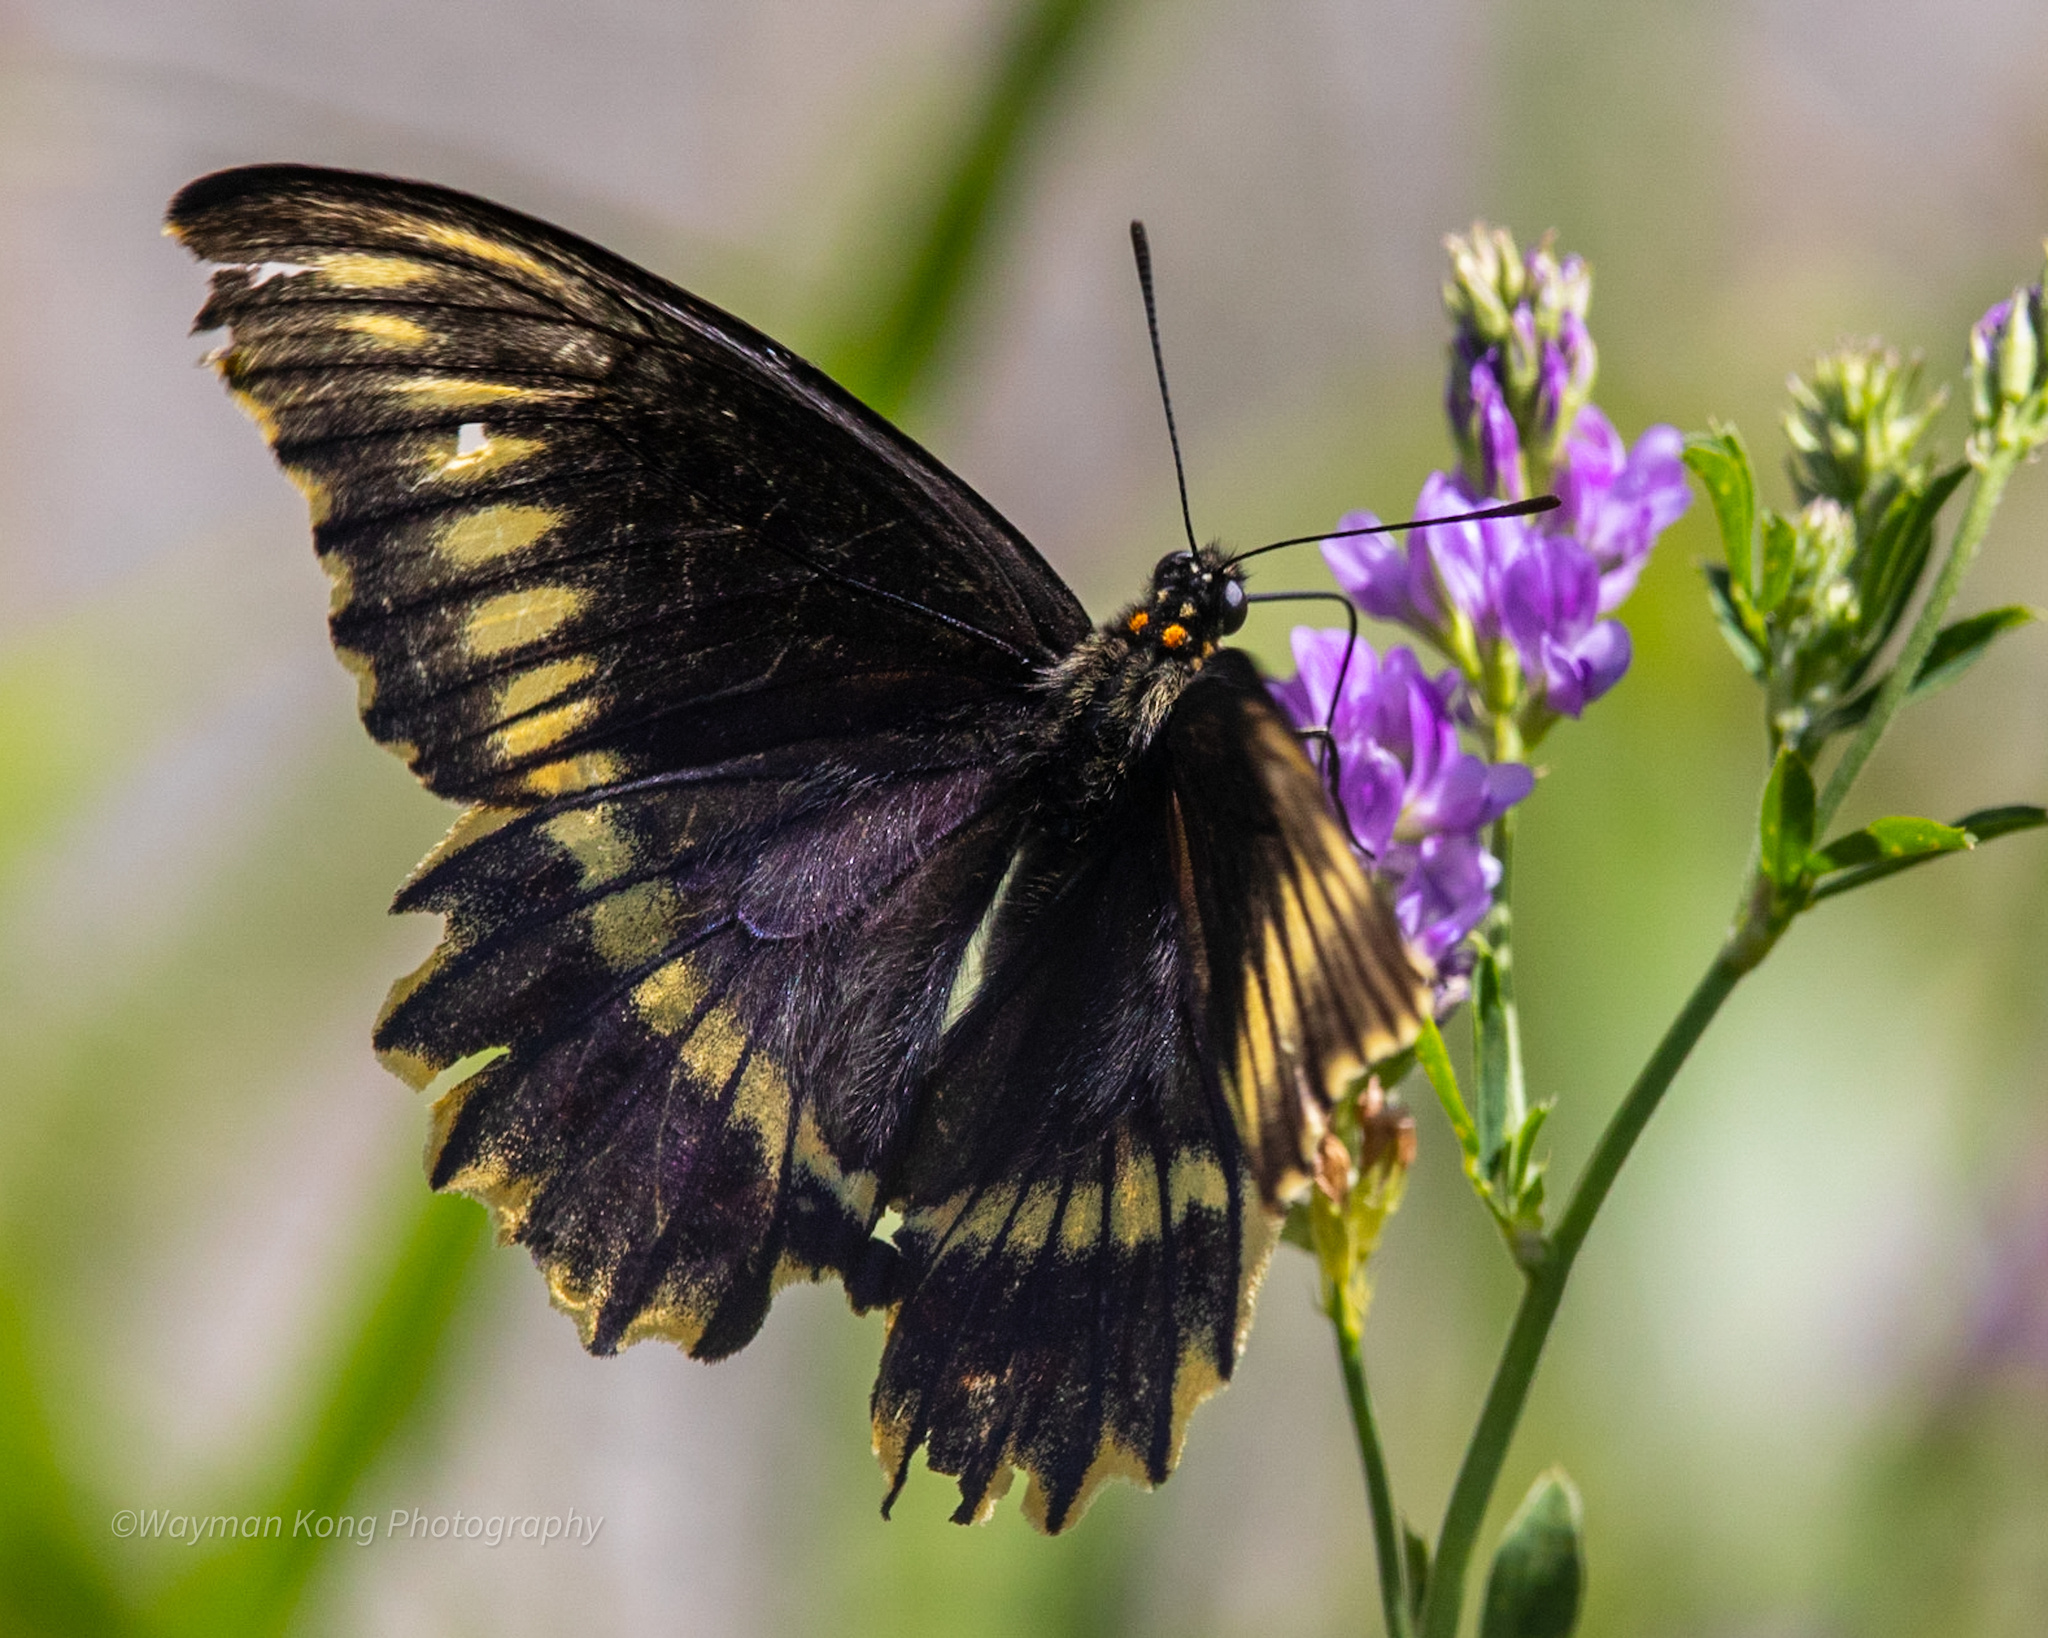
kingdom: Animalia
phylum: Arthropoda
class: Insecta
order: Lepidoptera
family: Papilionidae
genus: Battus
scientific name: Battus polydamas
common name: Polydamas swallowtail
